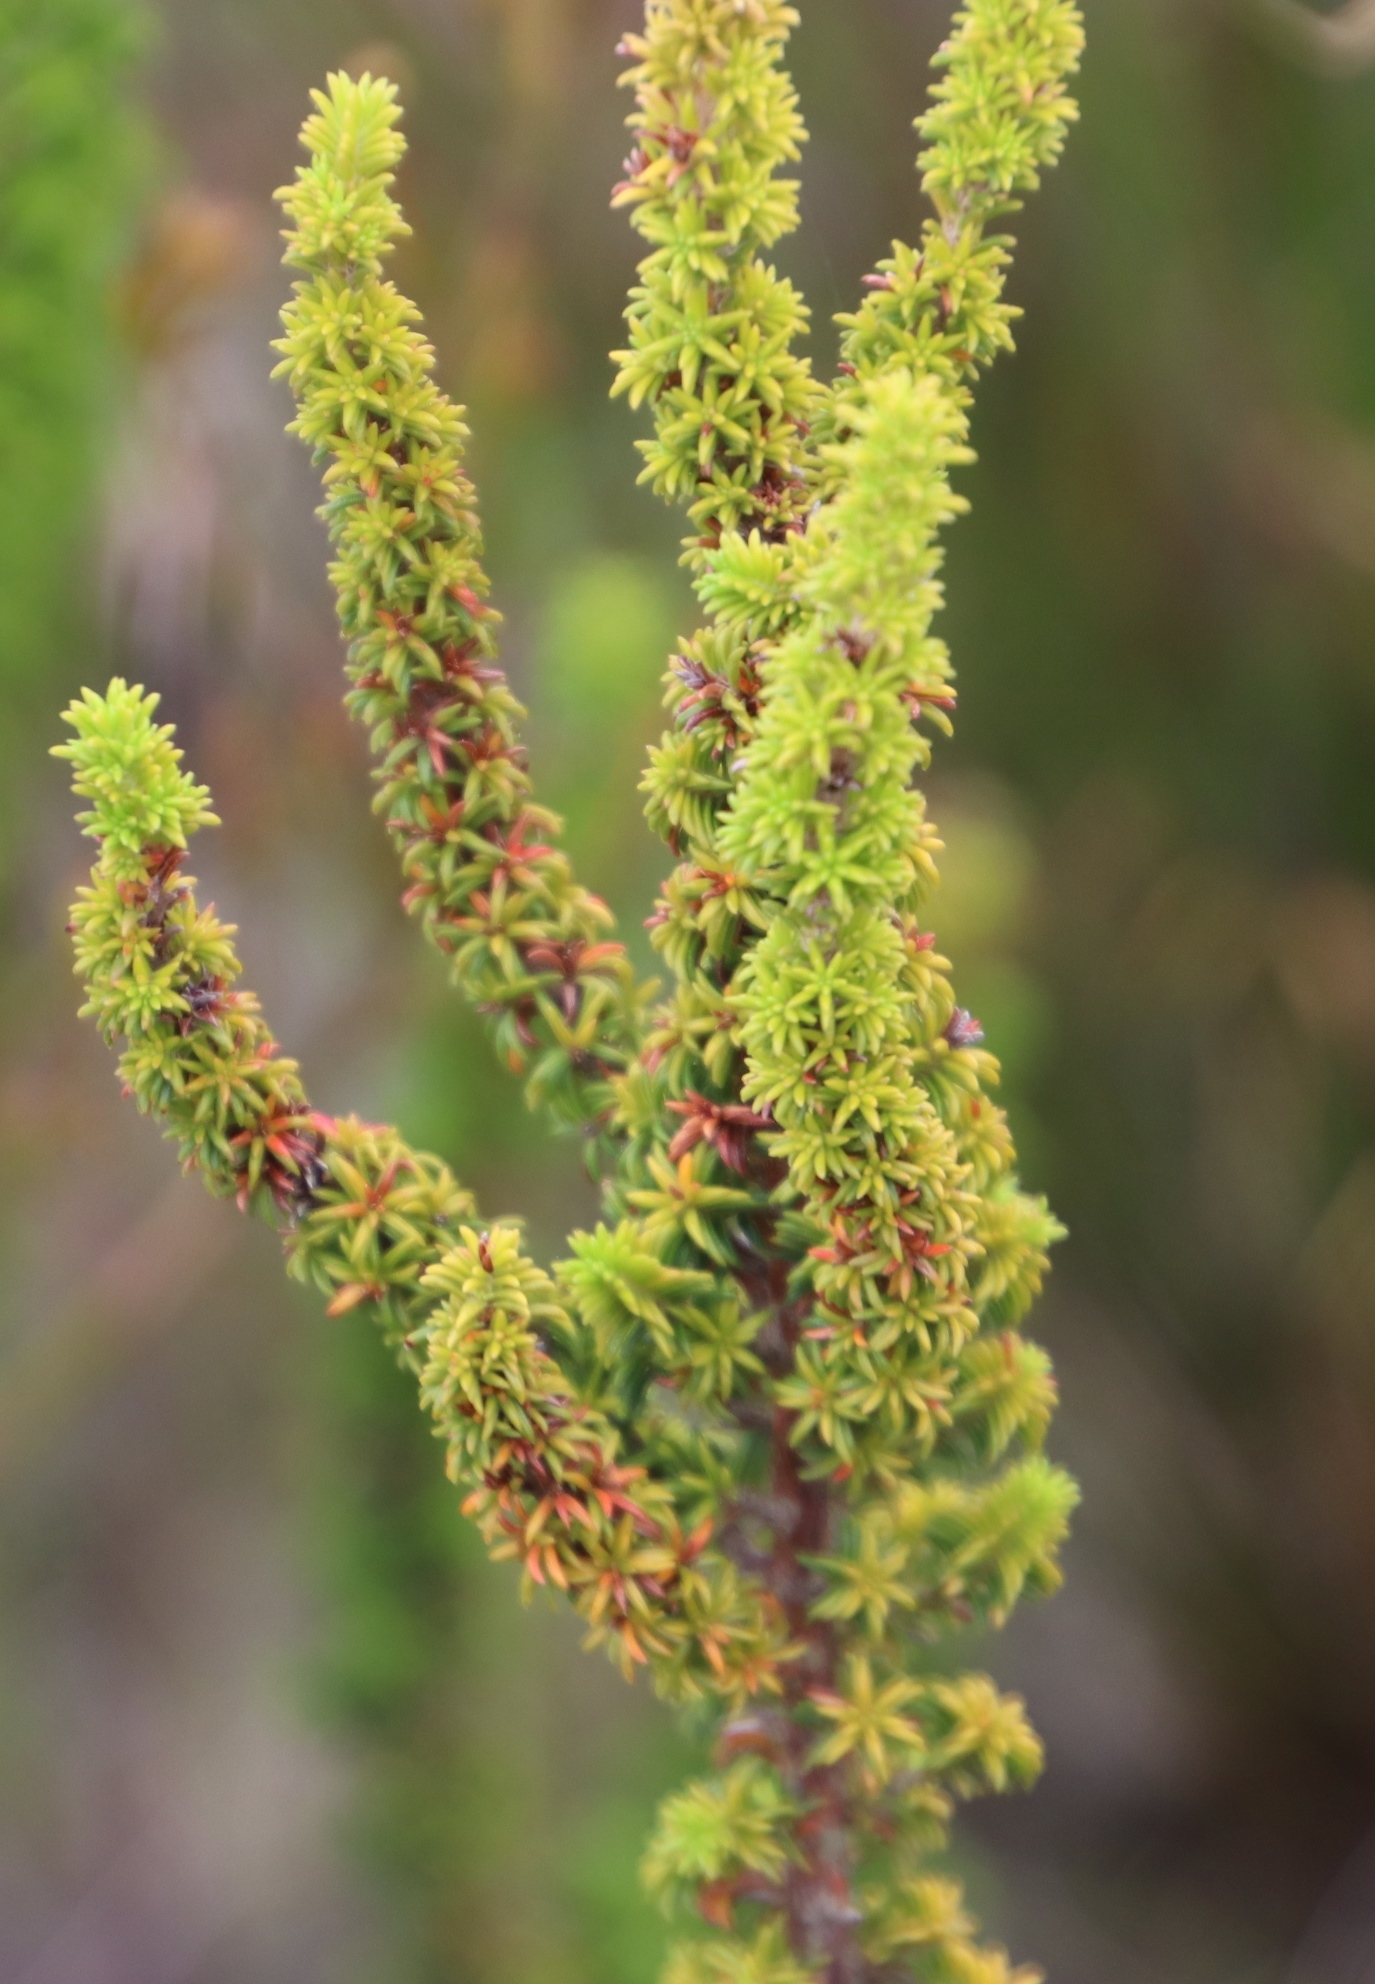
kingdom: Plantae
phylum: Tracheophyta
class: Magnoliopsida
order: Ericales
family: Ericaceae
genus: Erica
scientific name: Erica coccinea
